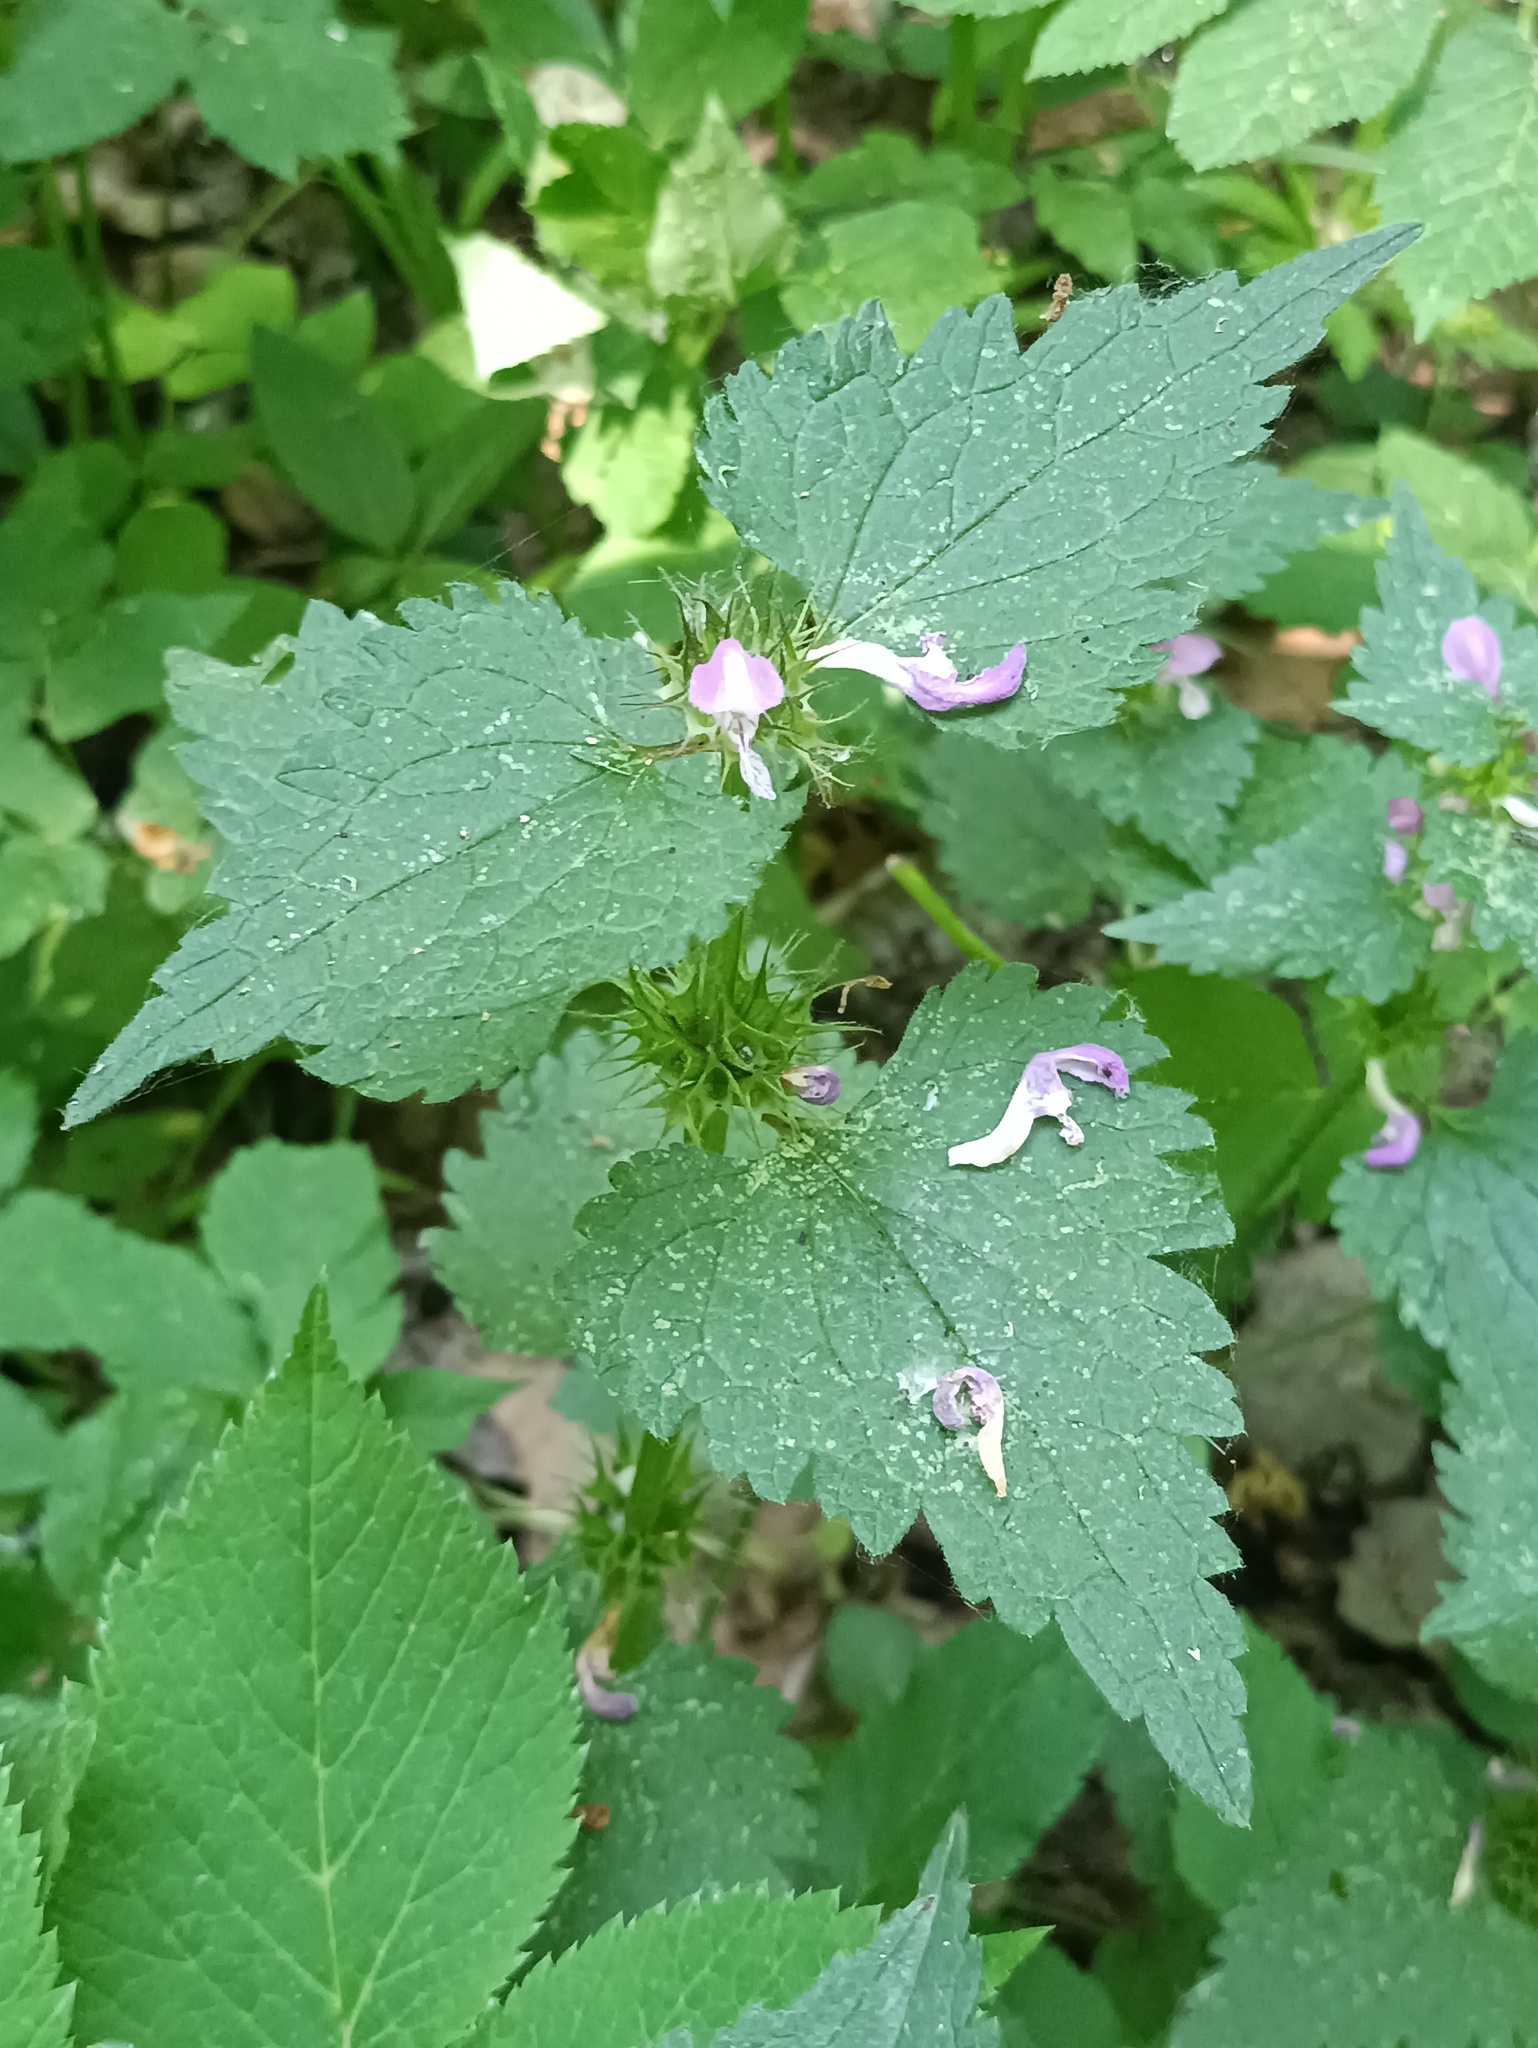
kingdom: Plantae
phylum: Tracheophyta
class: Magnoliopsida
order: Lamiales
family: Lamiaceae
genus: Lamium
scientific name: Lamium maculatum
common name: Spotted dead-nettle
